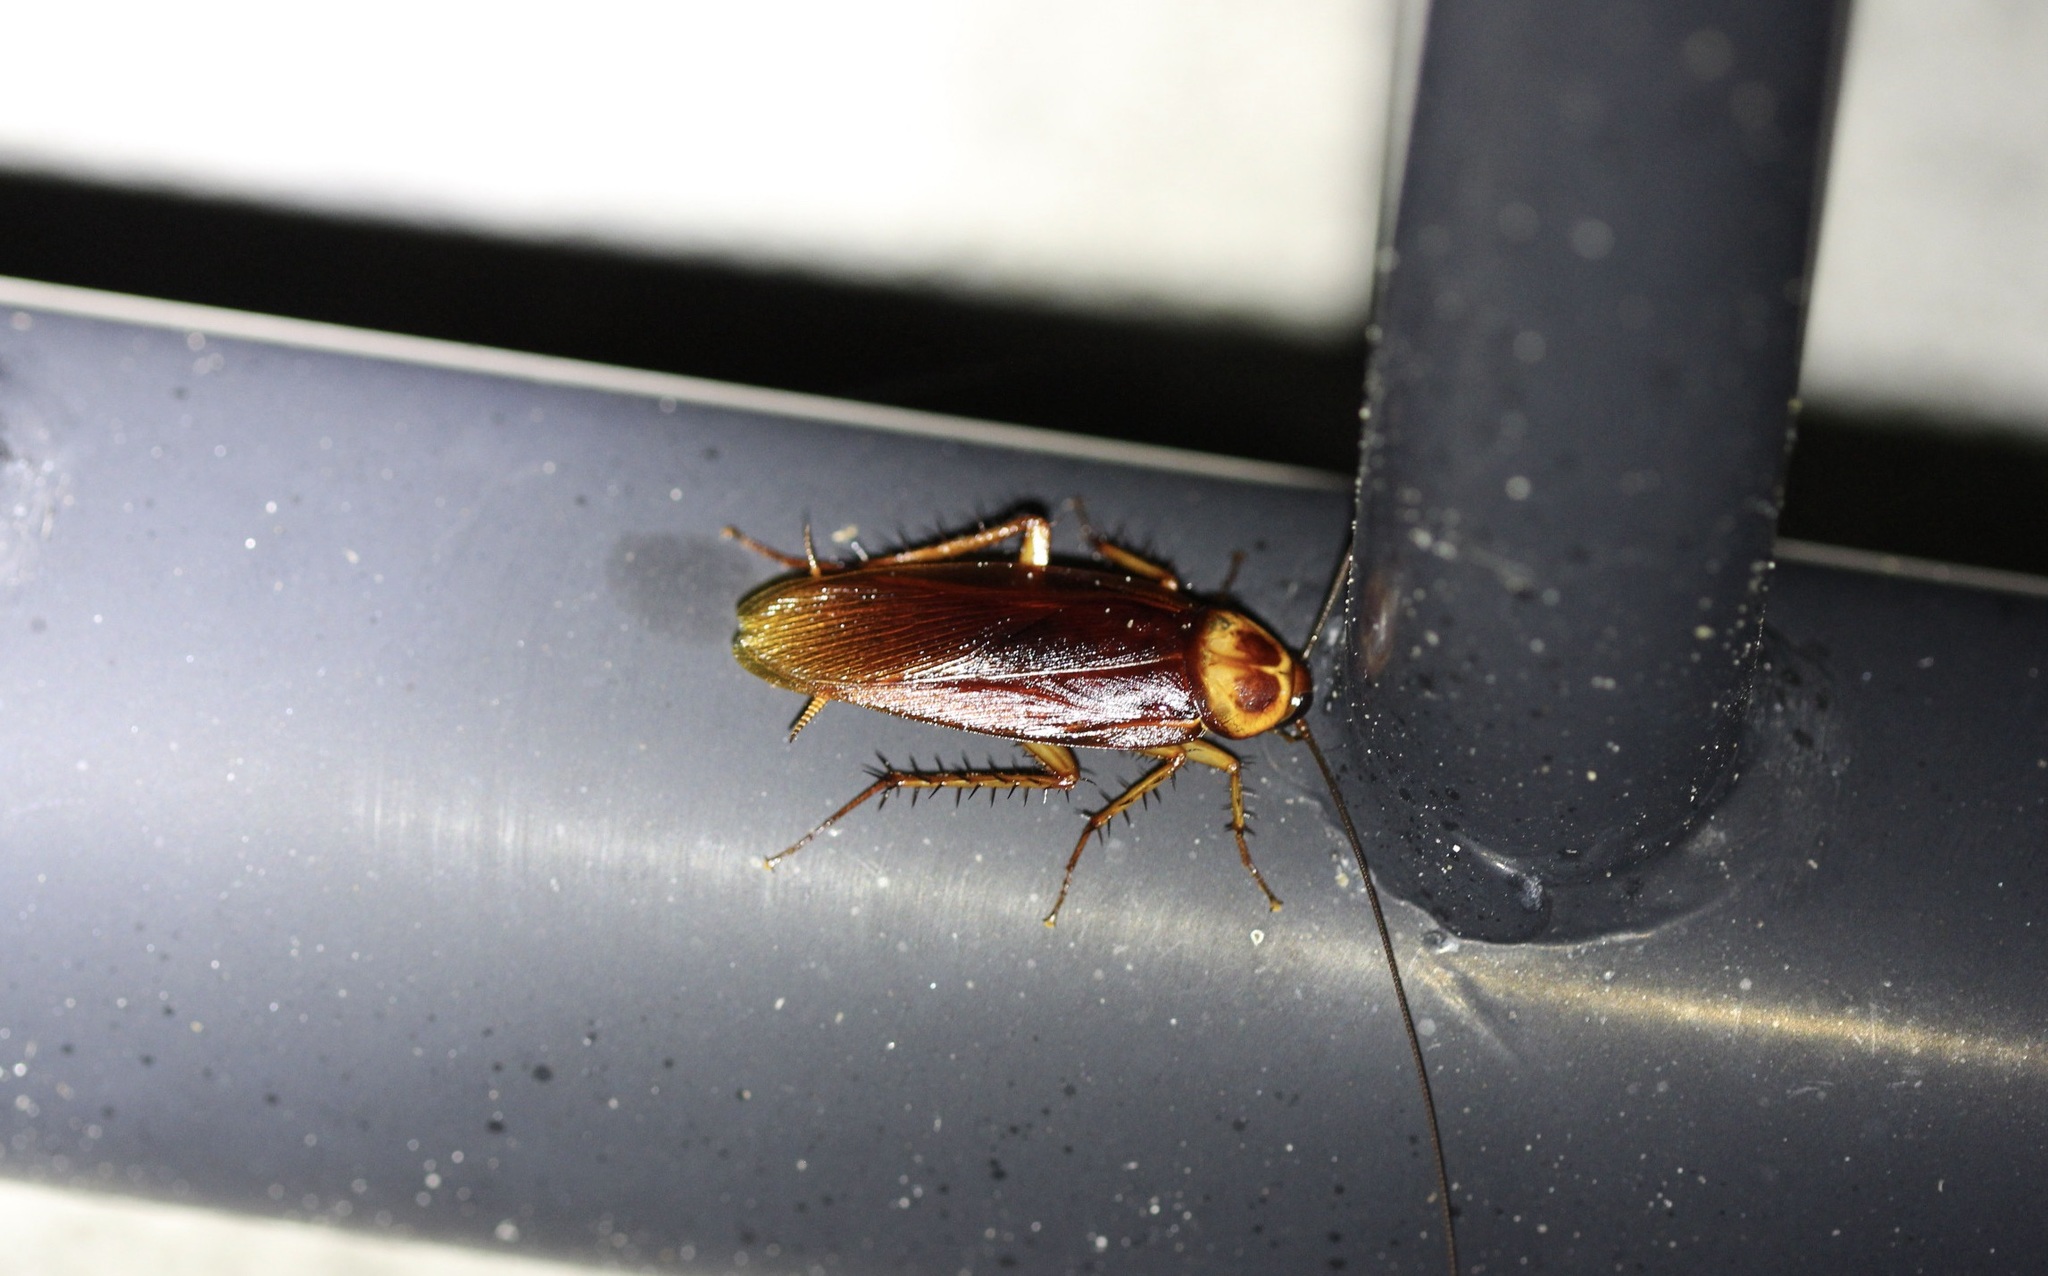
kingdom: Animalia
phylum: Arthropoda
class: Insecta
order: Blattodea
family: Blattidae
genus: Periplaneta
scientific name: Periplaneta americana
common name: American cockroach
